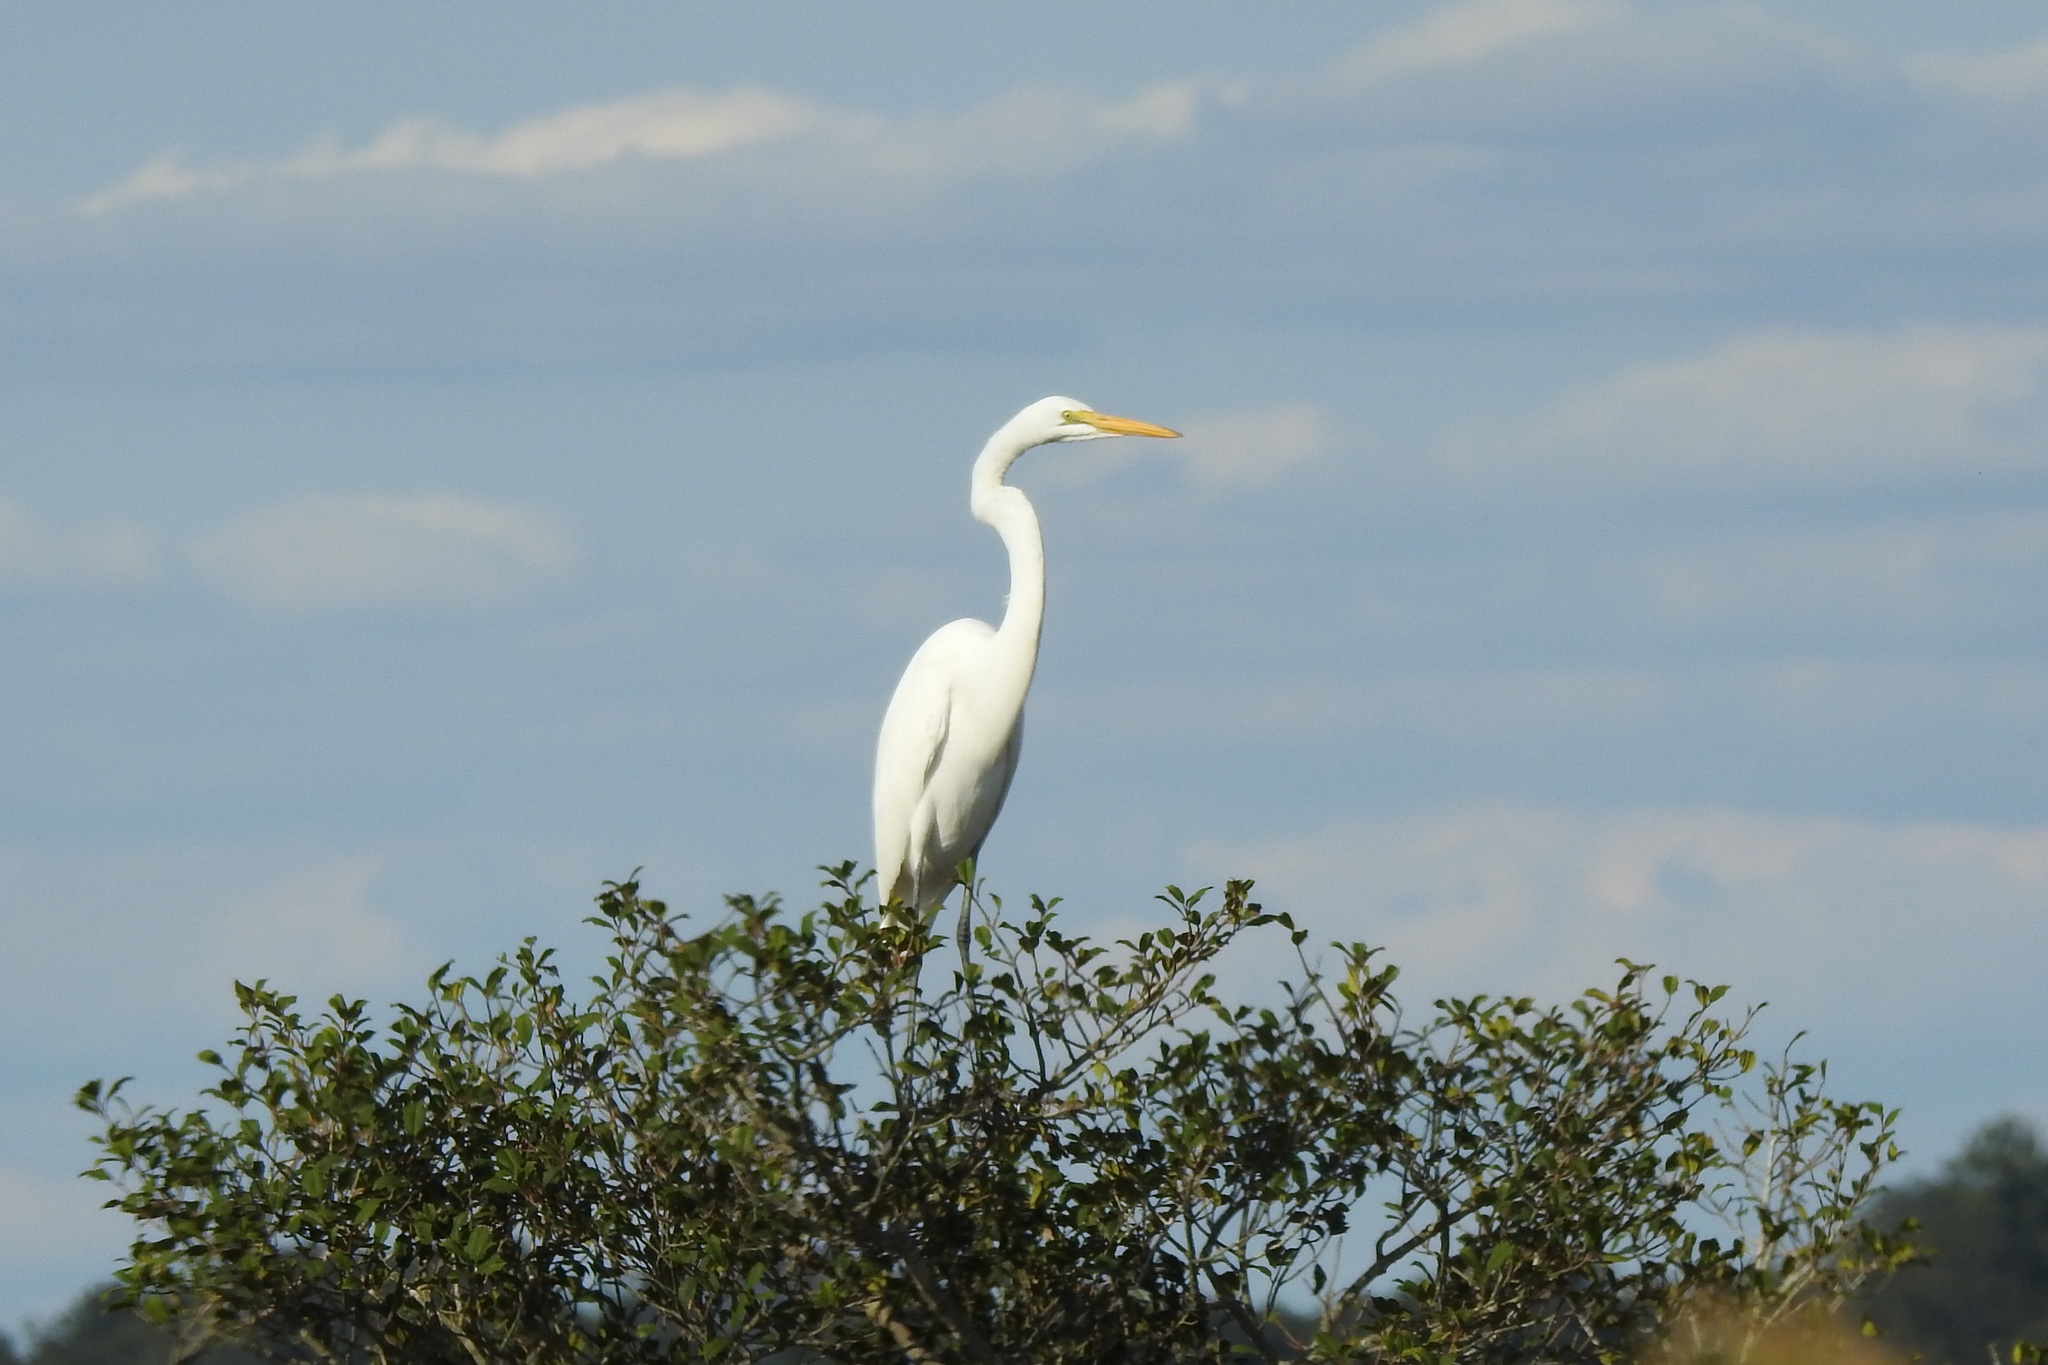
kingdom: Animalia
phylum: Chordata
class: Aves
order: Pelecaniformes
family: Ardeidae
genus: Ardea
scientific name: Ardea alba
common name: Great egret
